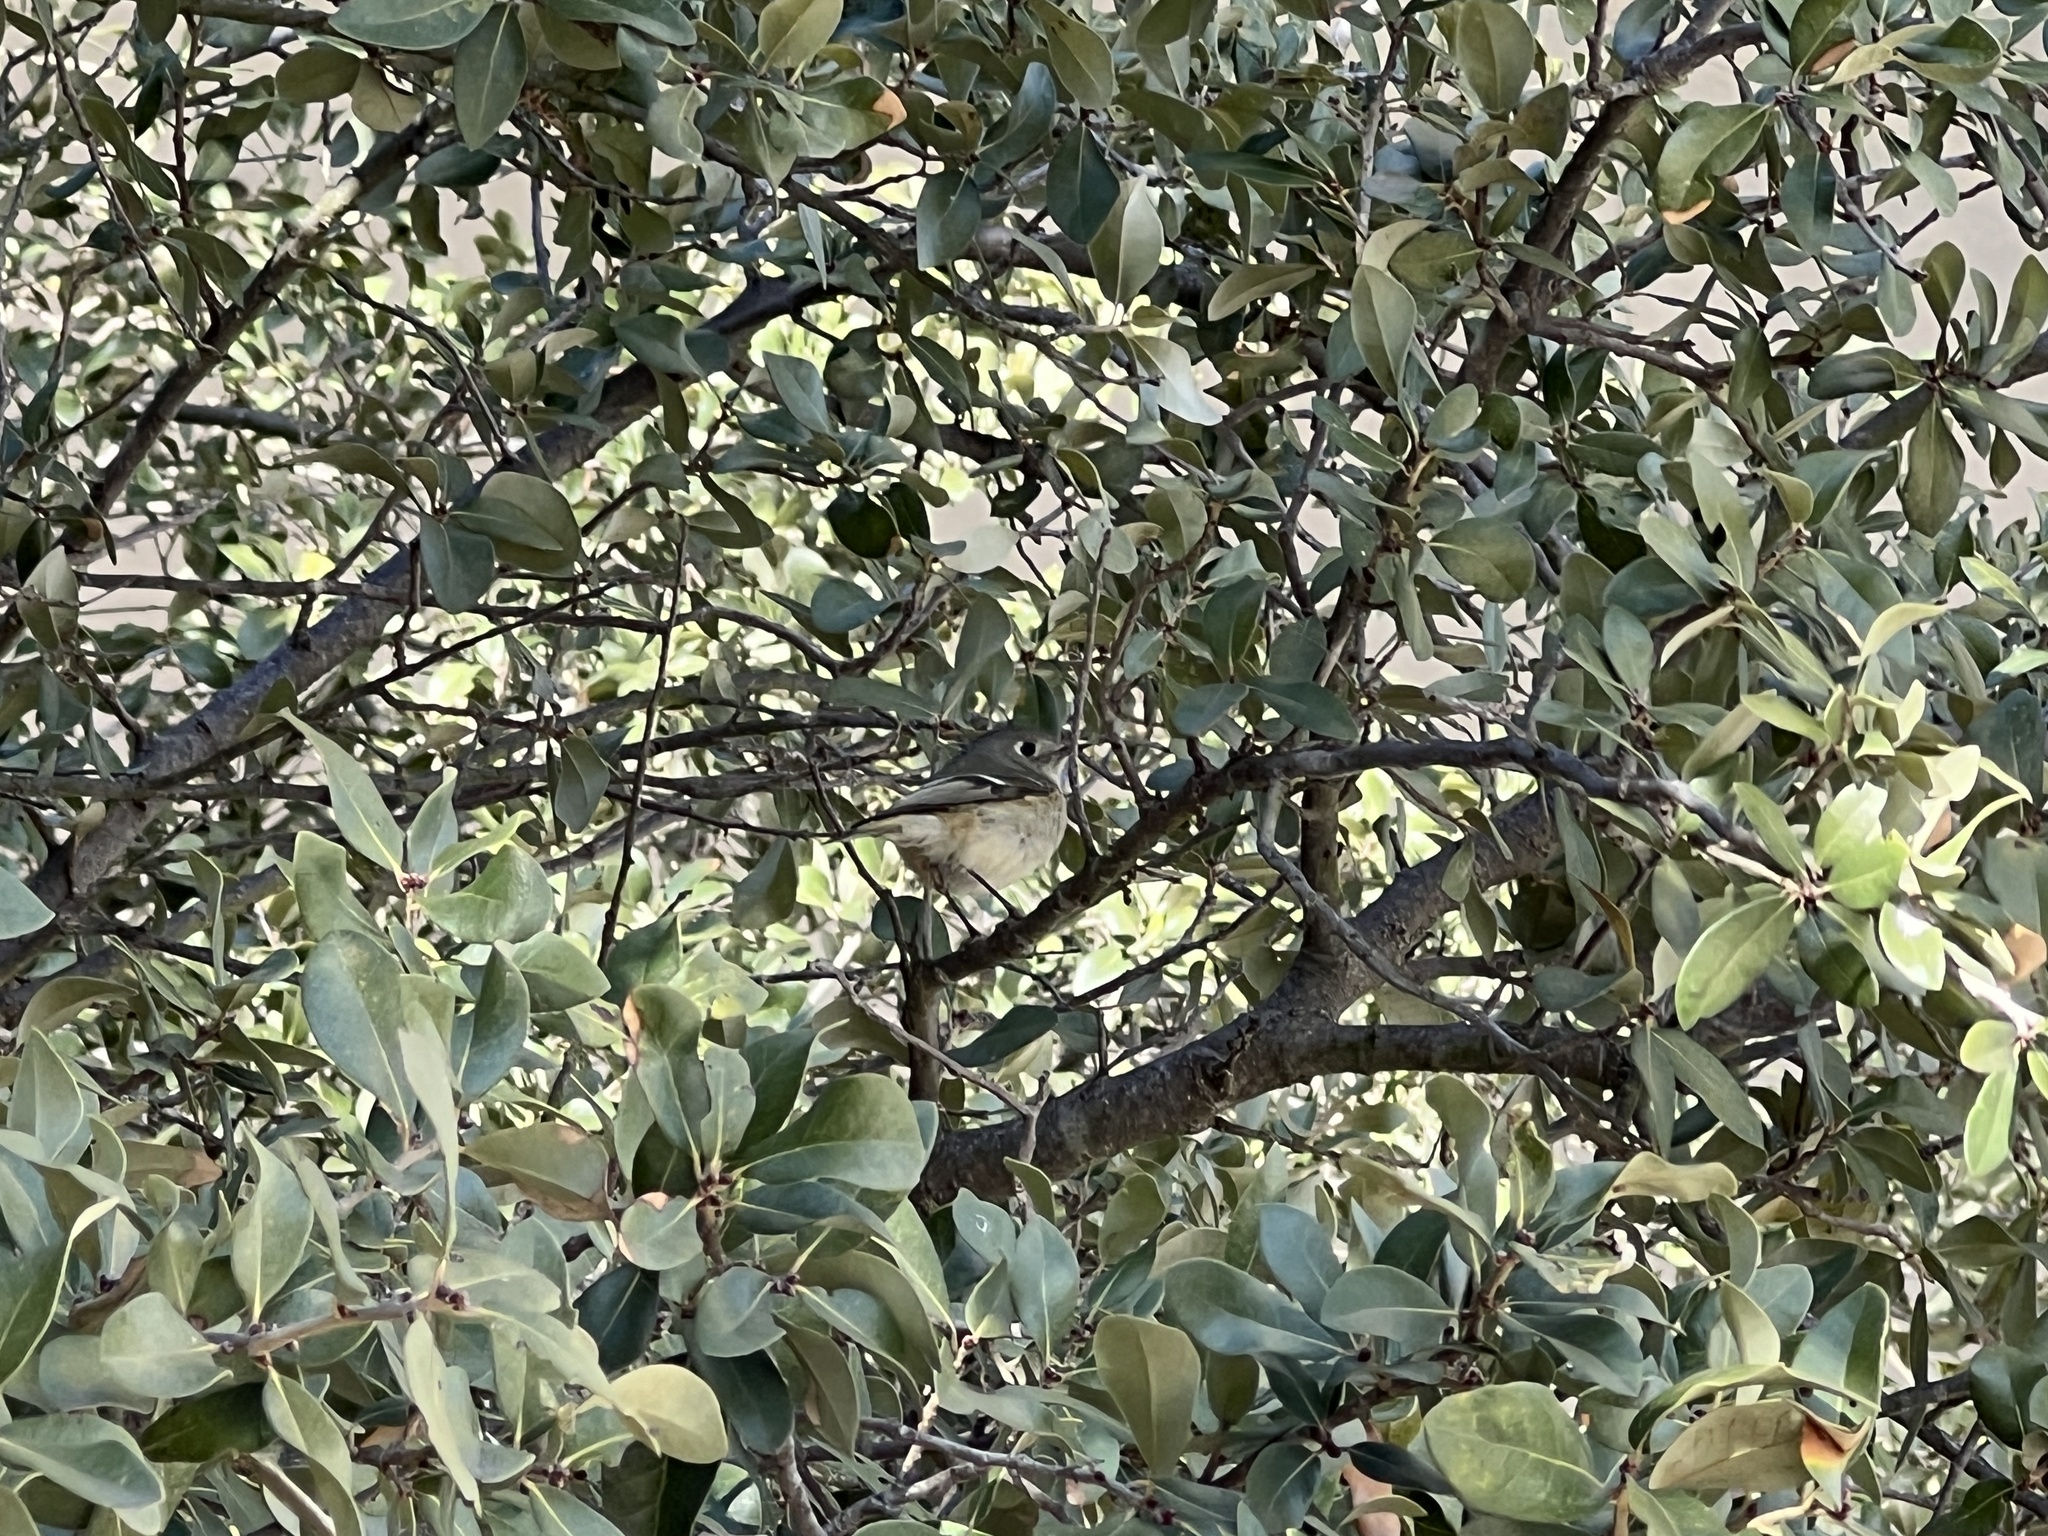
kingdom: Animalia
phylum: Chordata
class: Aves
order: Passeriformes
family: Regulidae
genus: Regulus
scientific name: Regulus calendula
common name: Ruby-crowned kinglet
